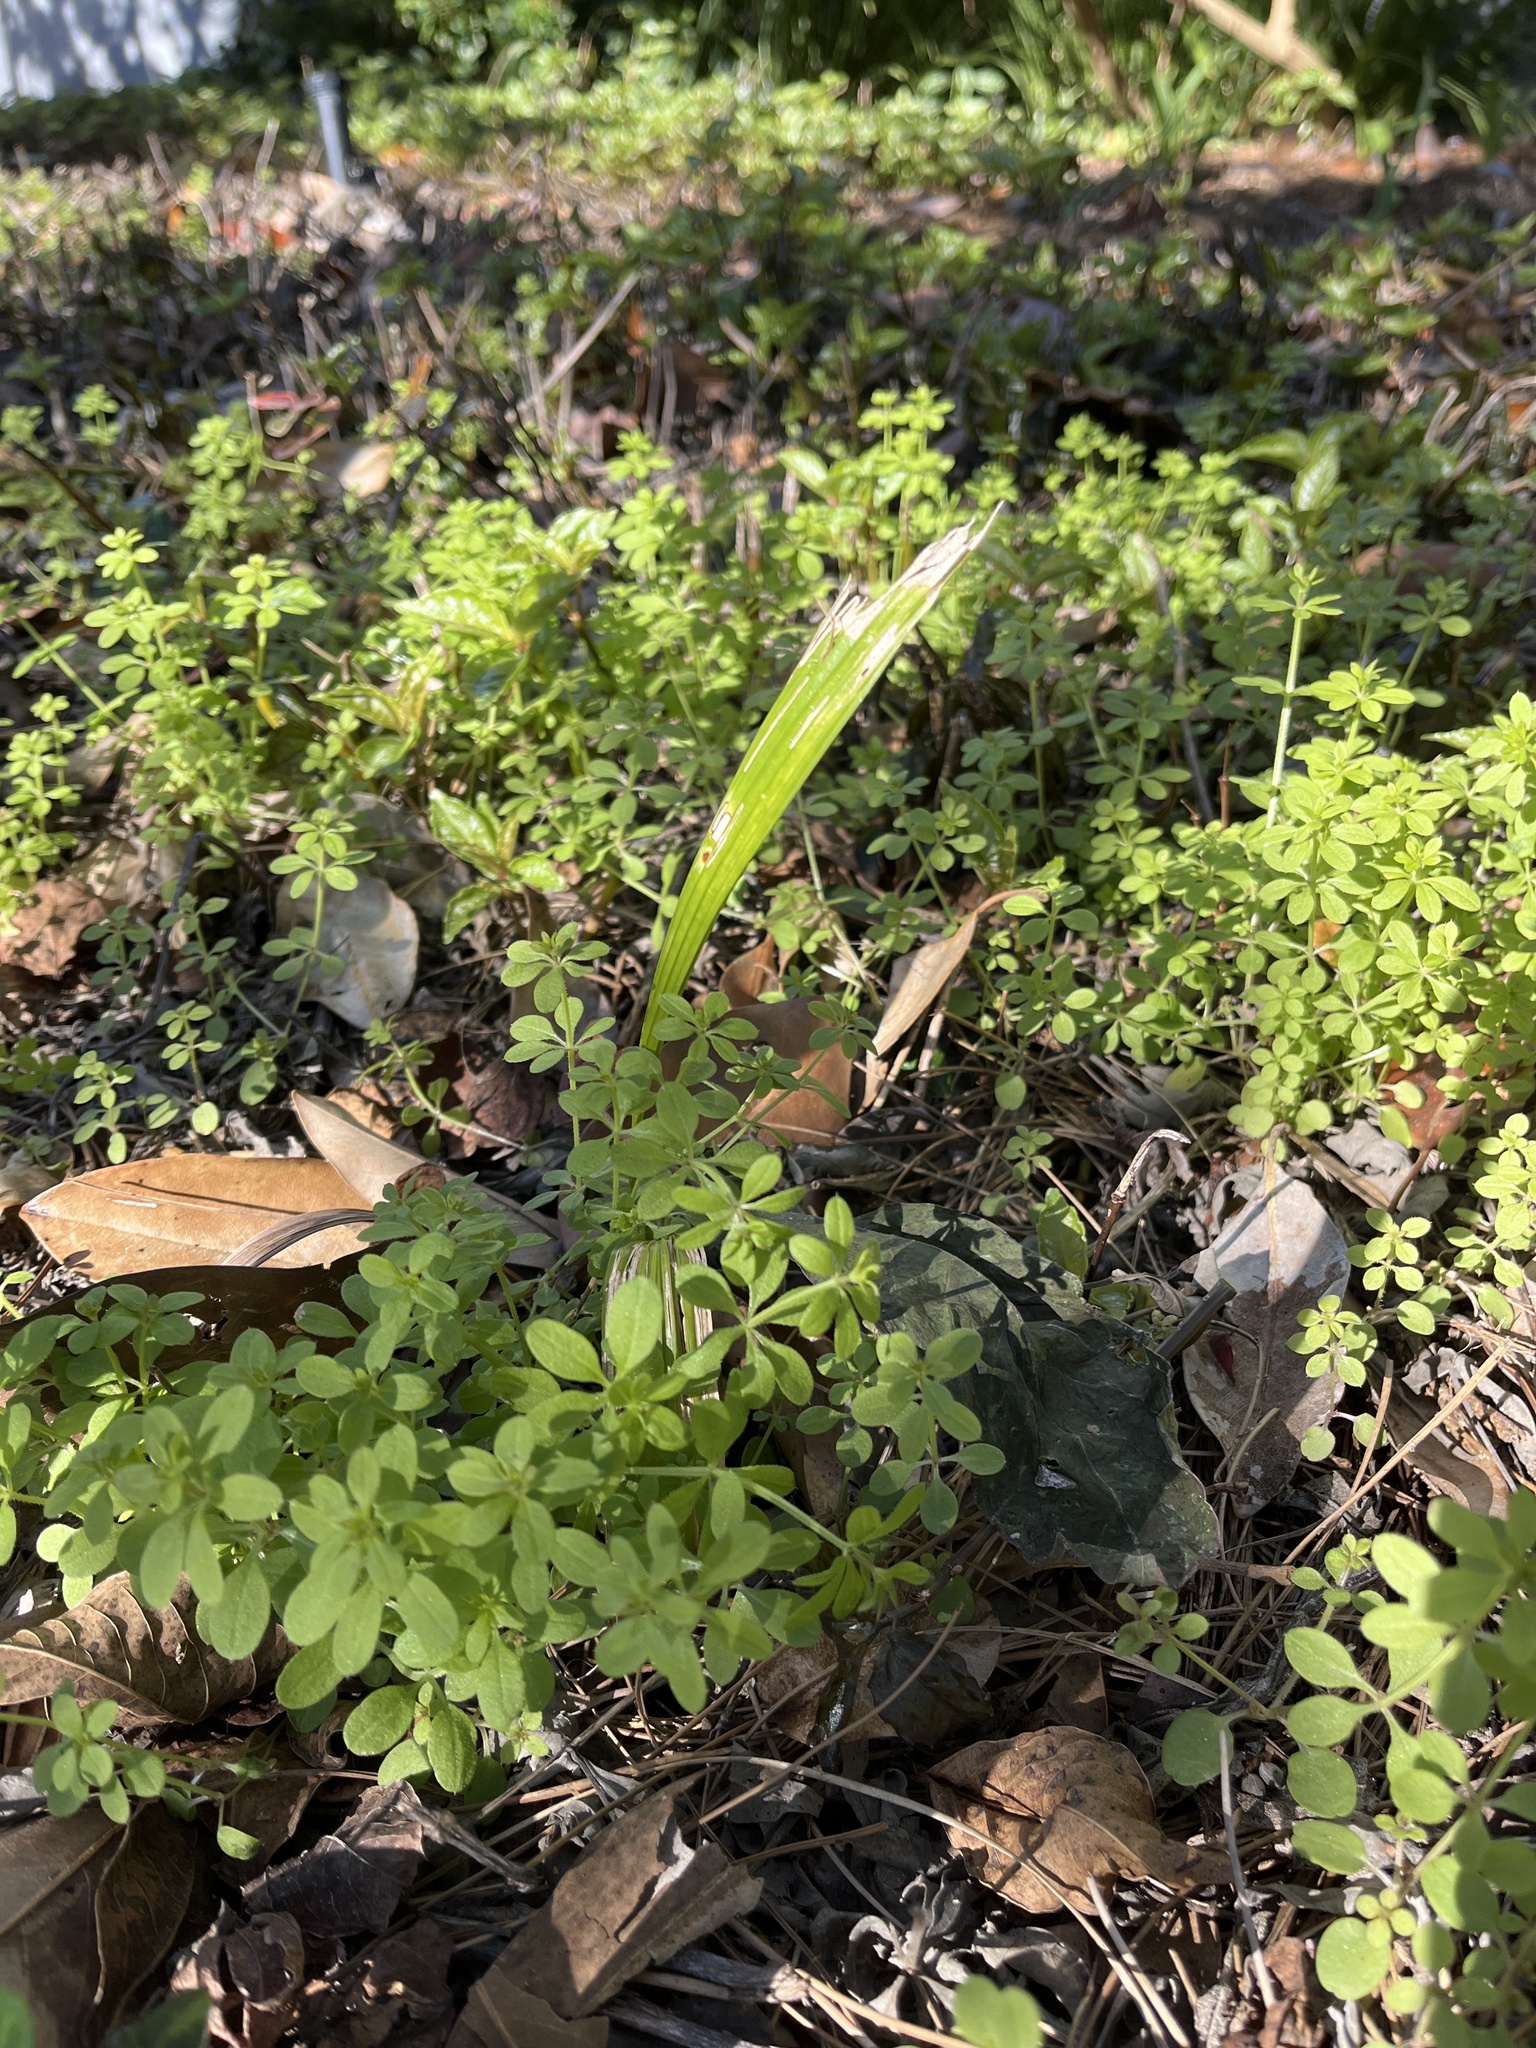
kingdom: Plantae
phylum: Tracheophyta
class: Magnoliopsida
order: Gentianales
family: Rubiaceae
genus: Galium
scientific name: Galium aparine
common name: Cleavers
